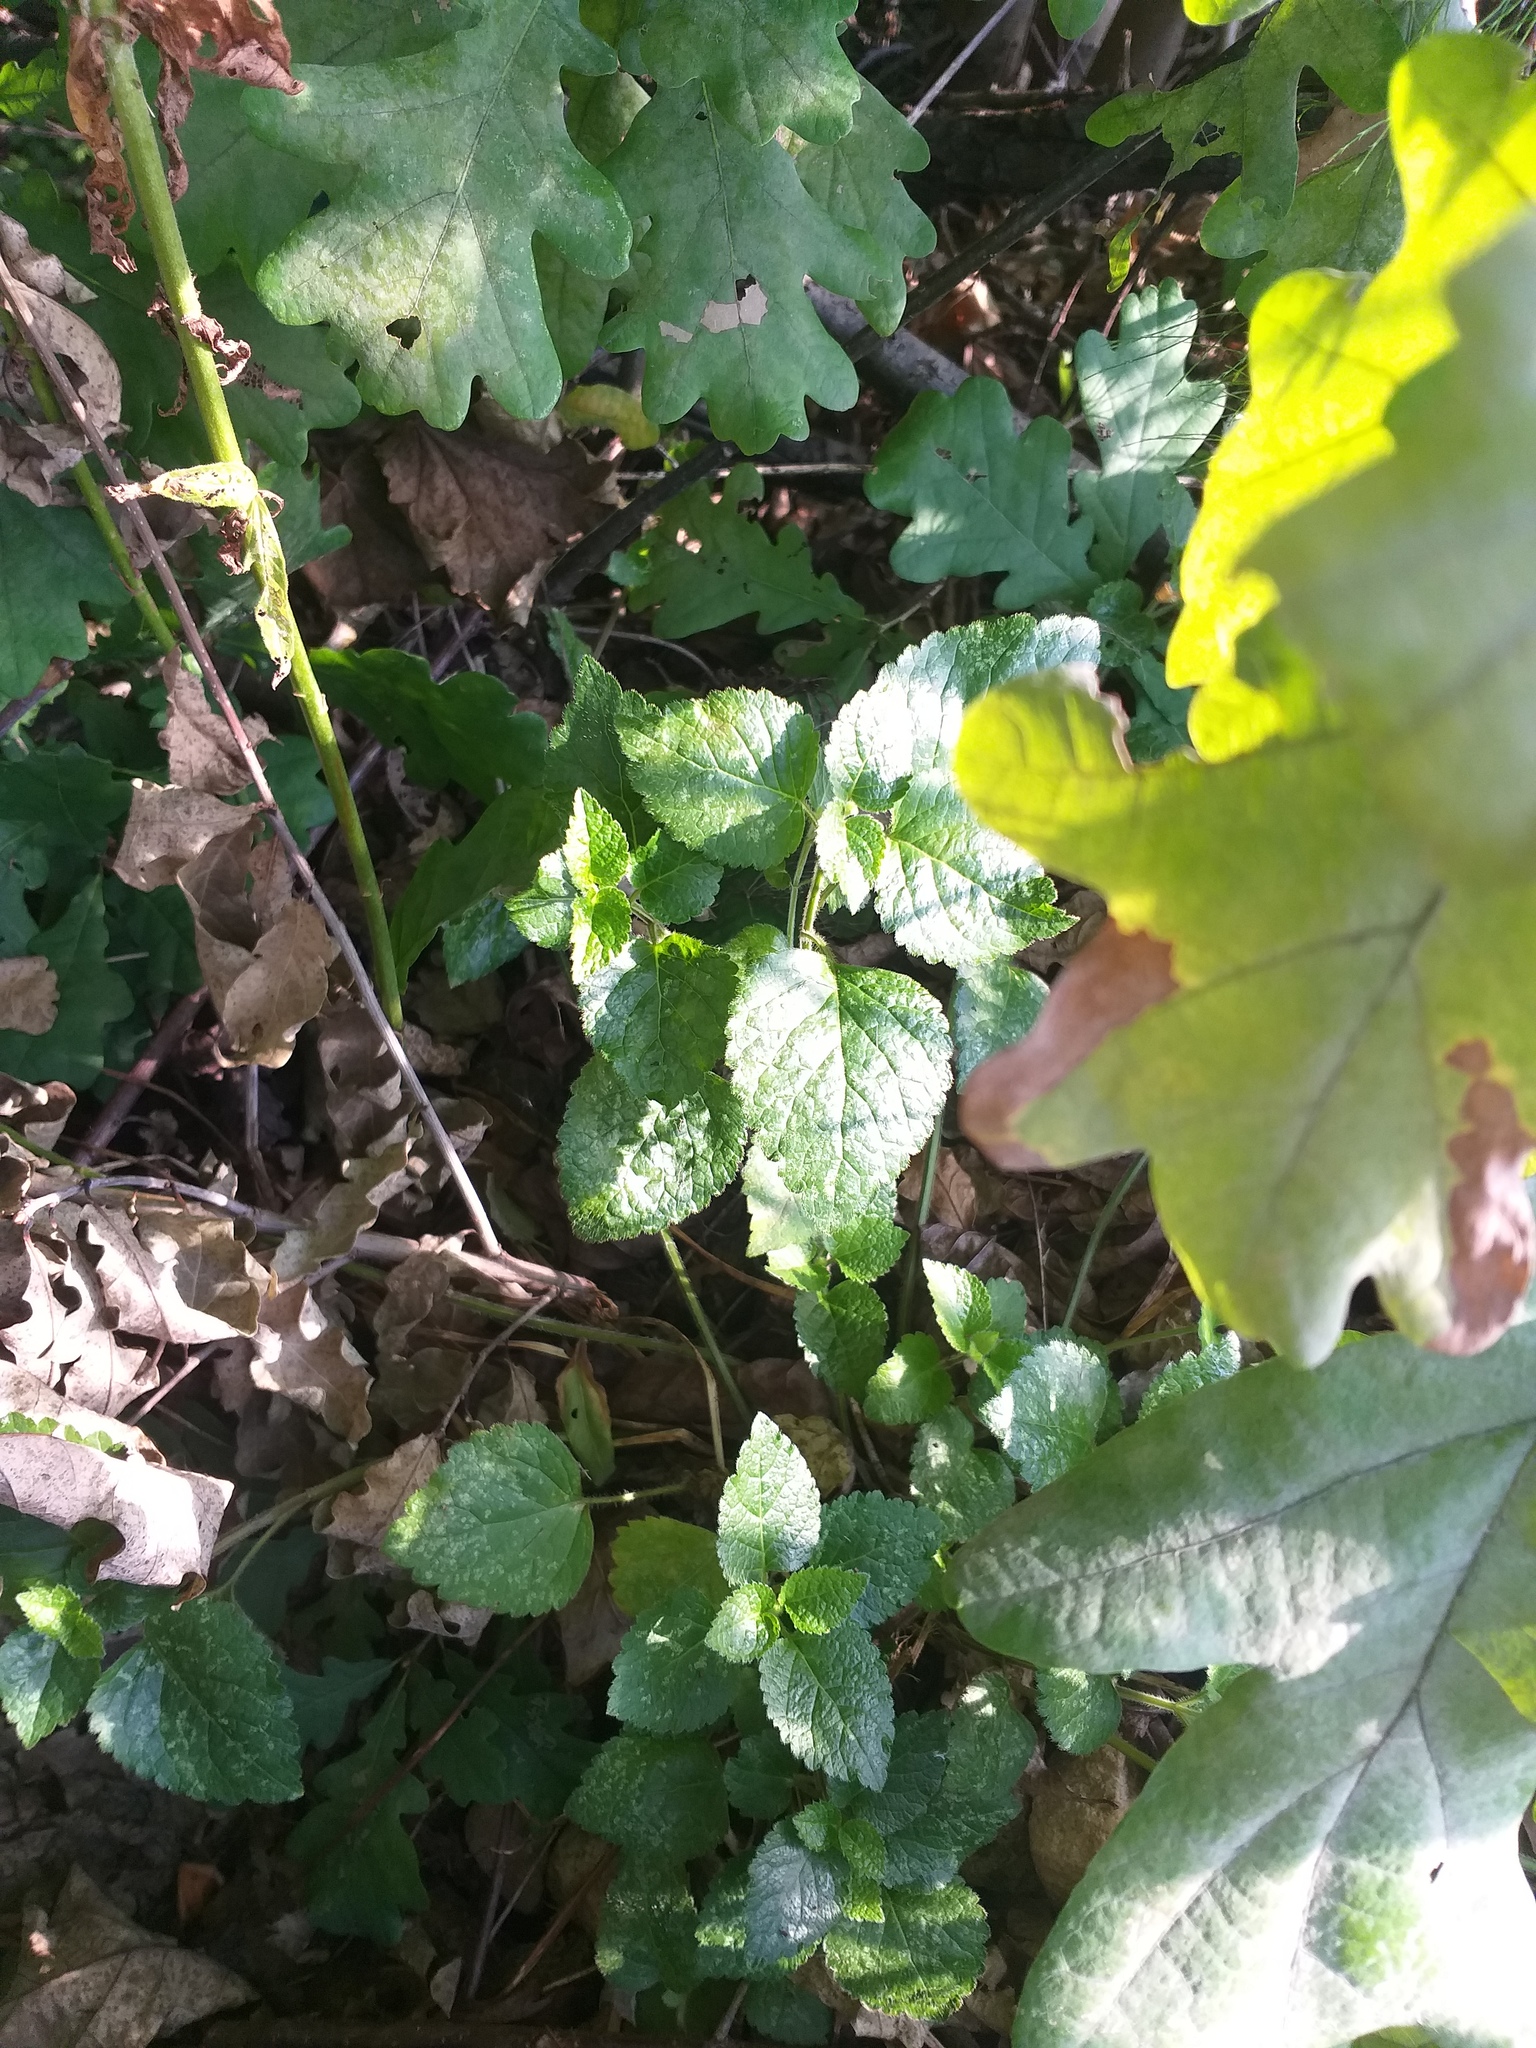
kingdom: Plantae
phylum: Tracheophyta
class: Magnoliopsida
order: Lamiales
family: Lamiaceae
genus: Lamium
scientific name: Lamium galeobdolon
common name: Yellow archangel
